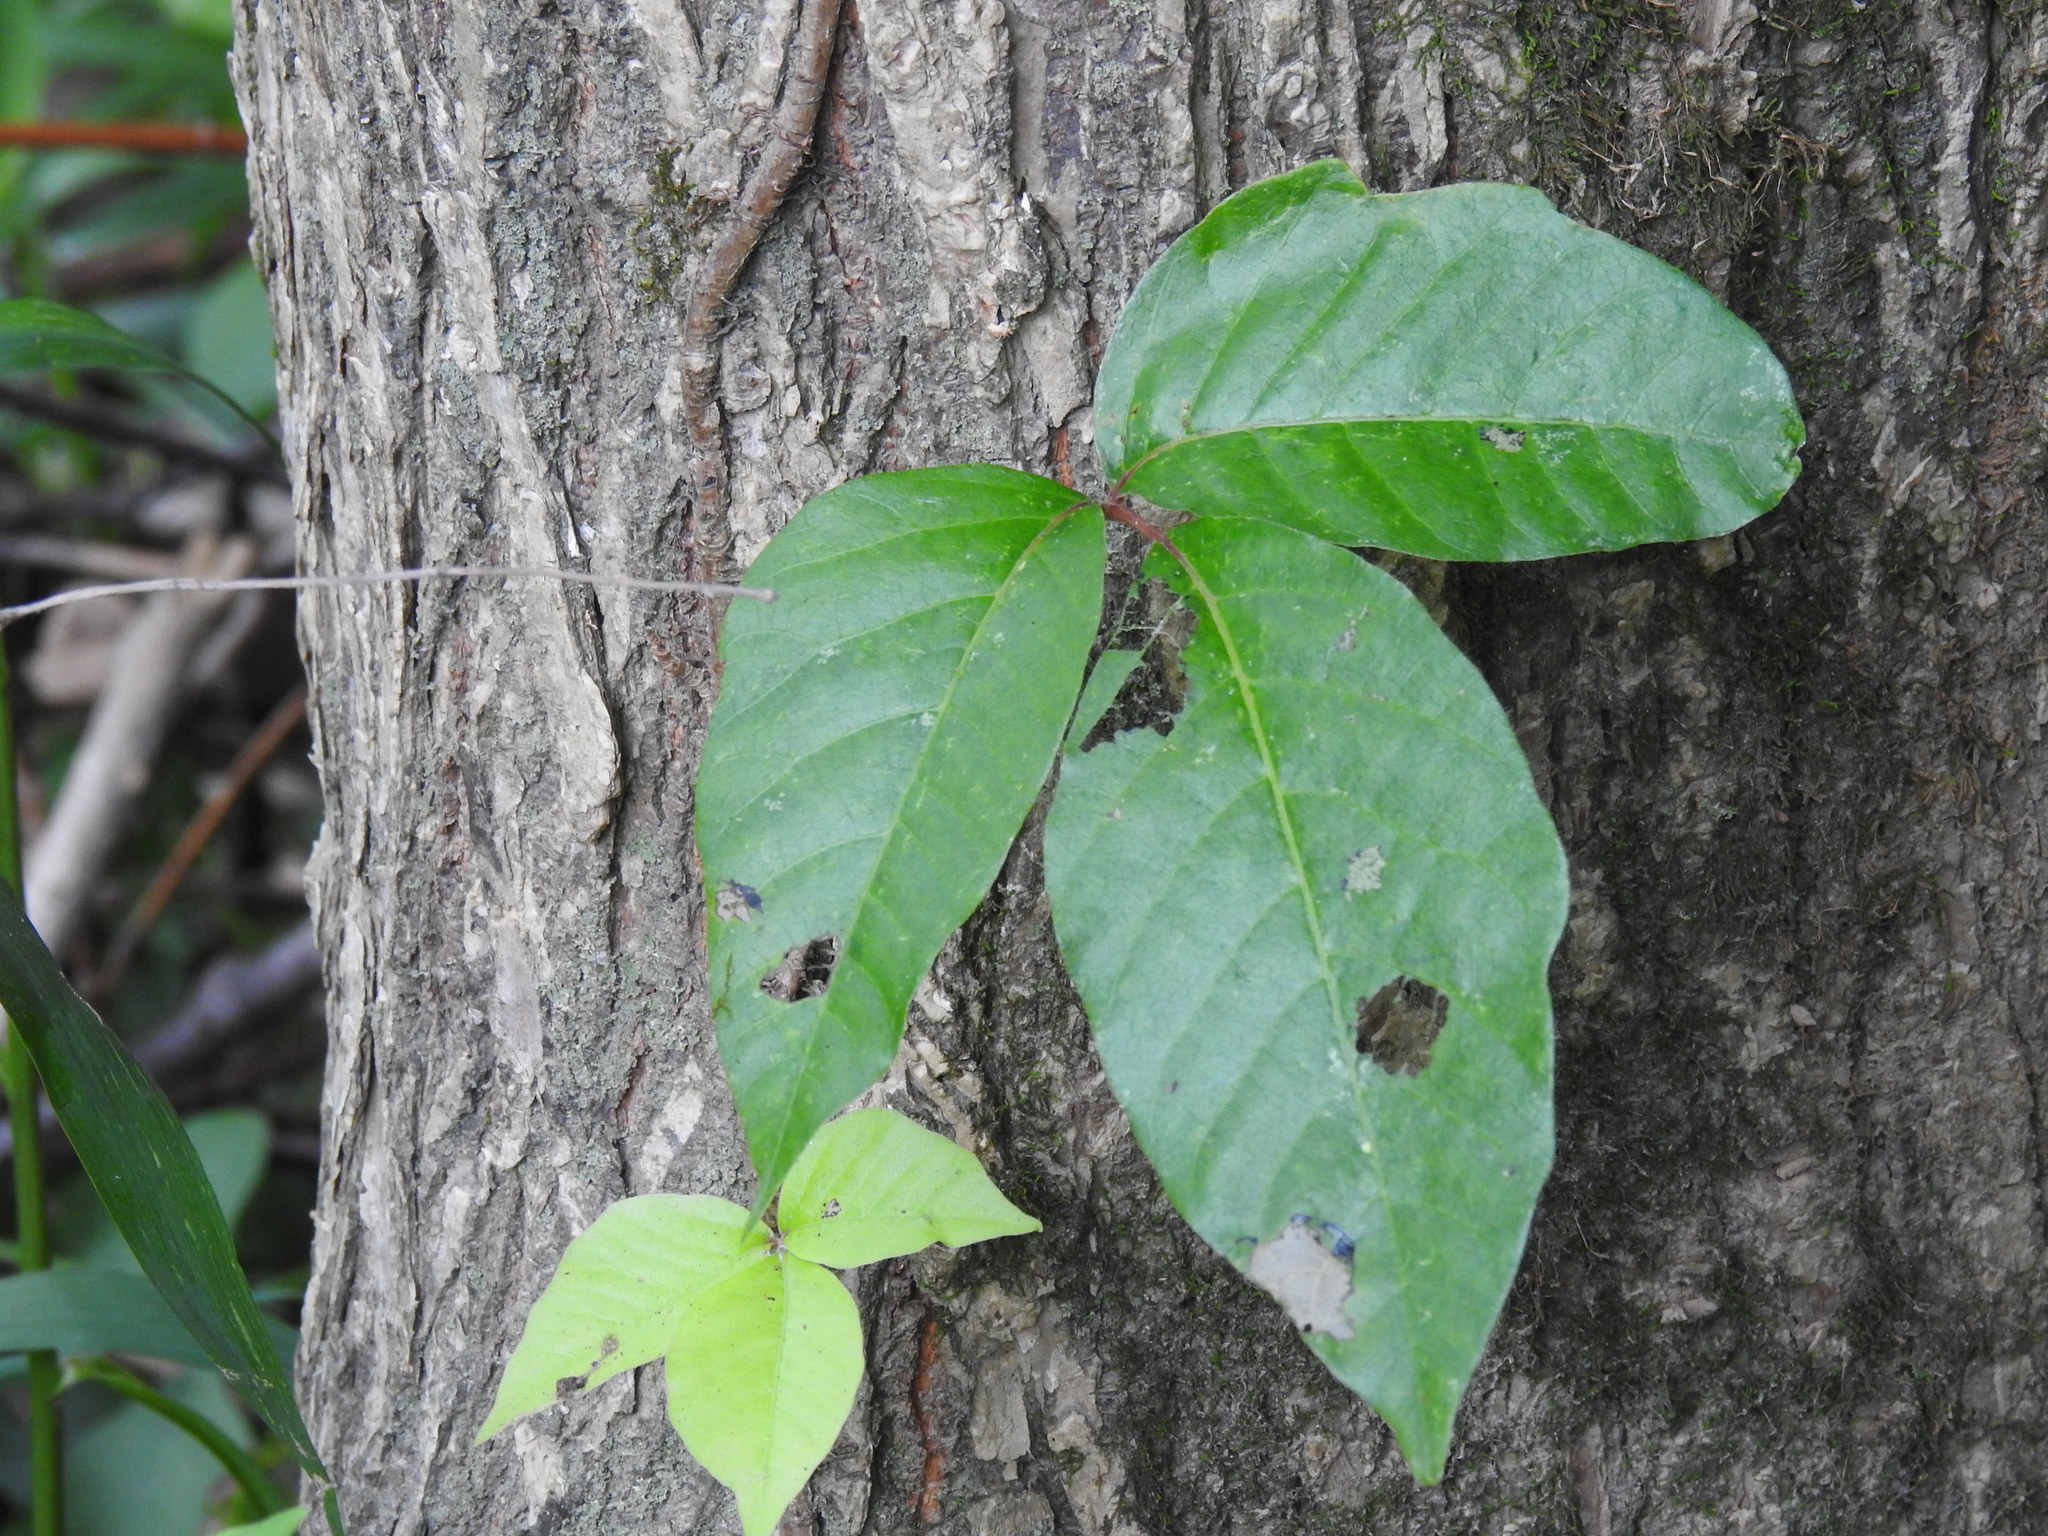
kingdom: Plantae
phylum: Tracheophyta
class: Magnoliopsida
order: Sapindales
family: Anacardiaceae
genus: Toxicodendron
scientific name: Toxicodendron radicans
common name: Poison ivy
